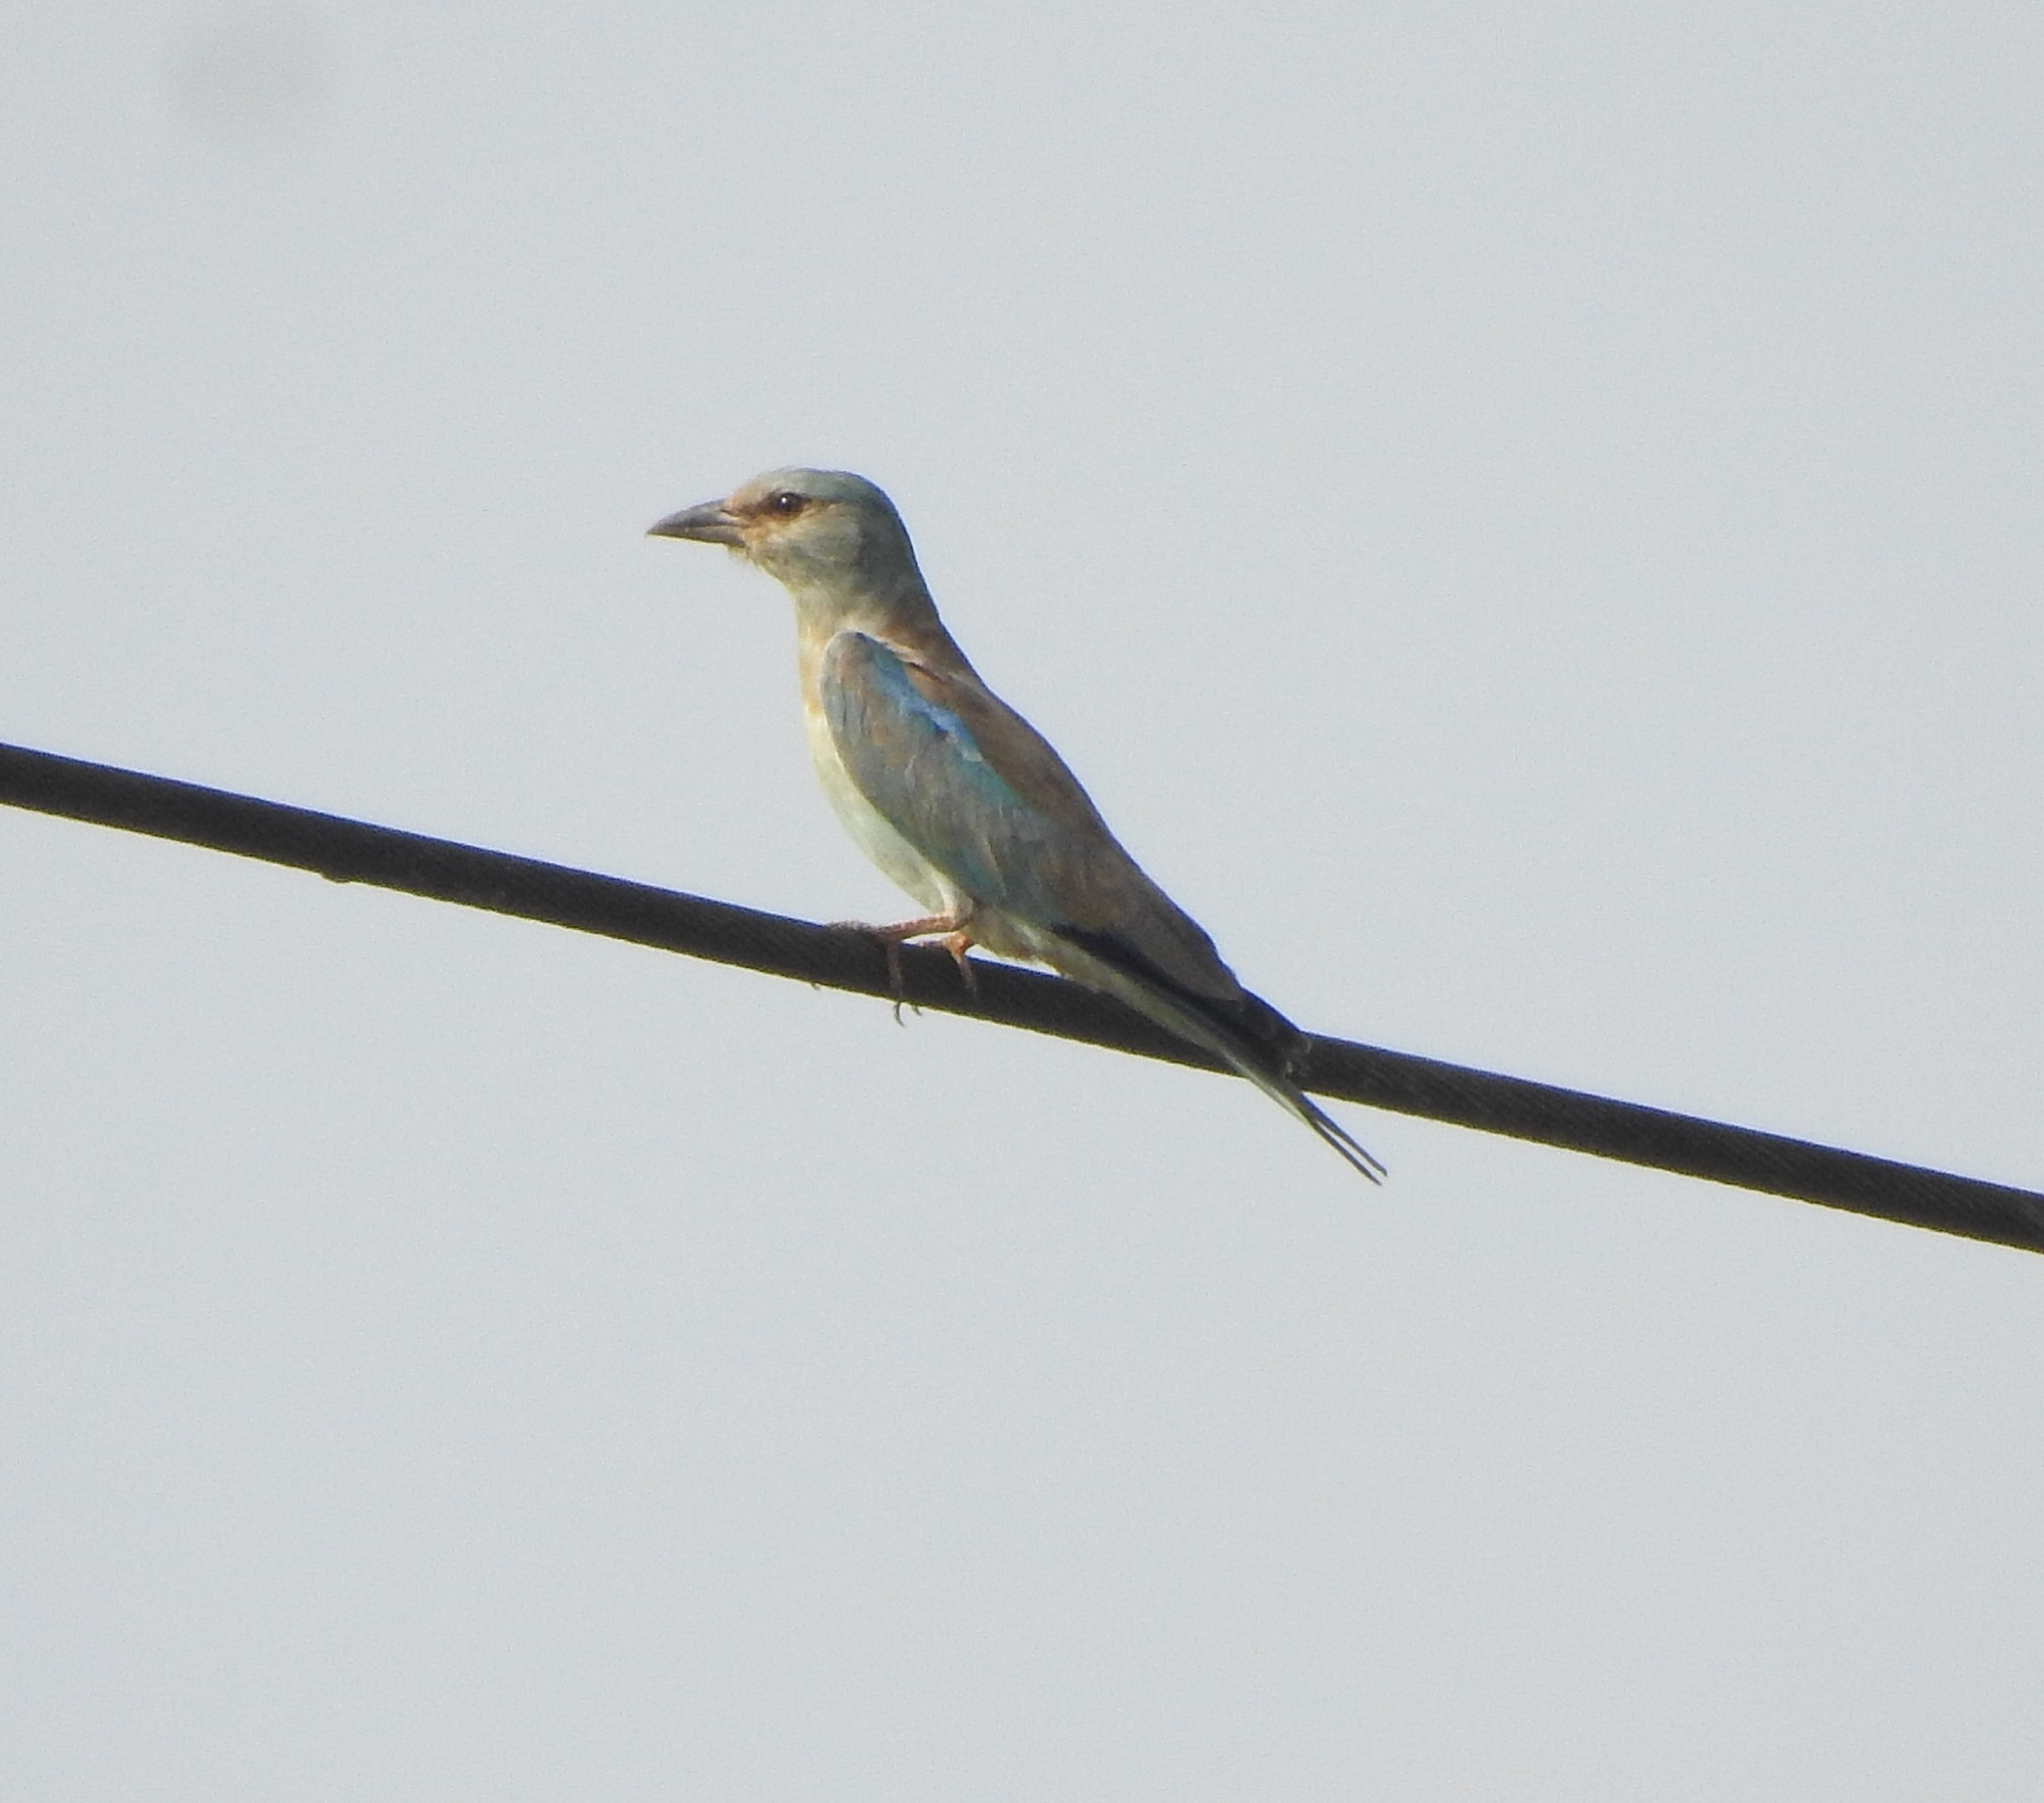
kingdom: Animalia
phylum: Chordata
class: Aves
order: Coraciiformes
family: Coraciidae
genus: Coracias
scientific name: Coracias garrulus
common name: European roller
